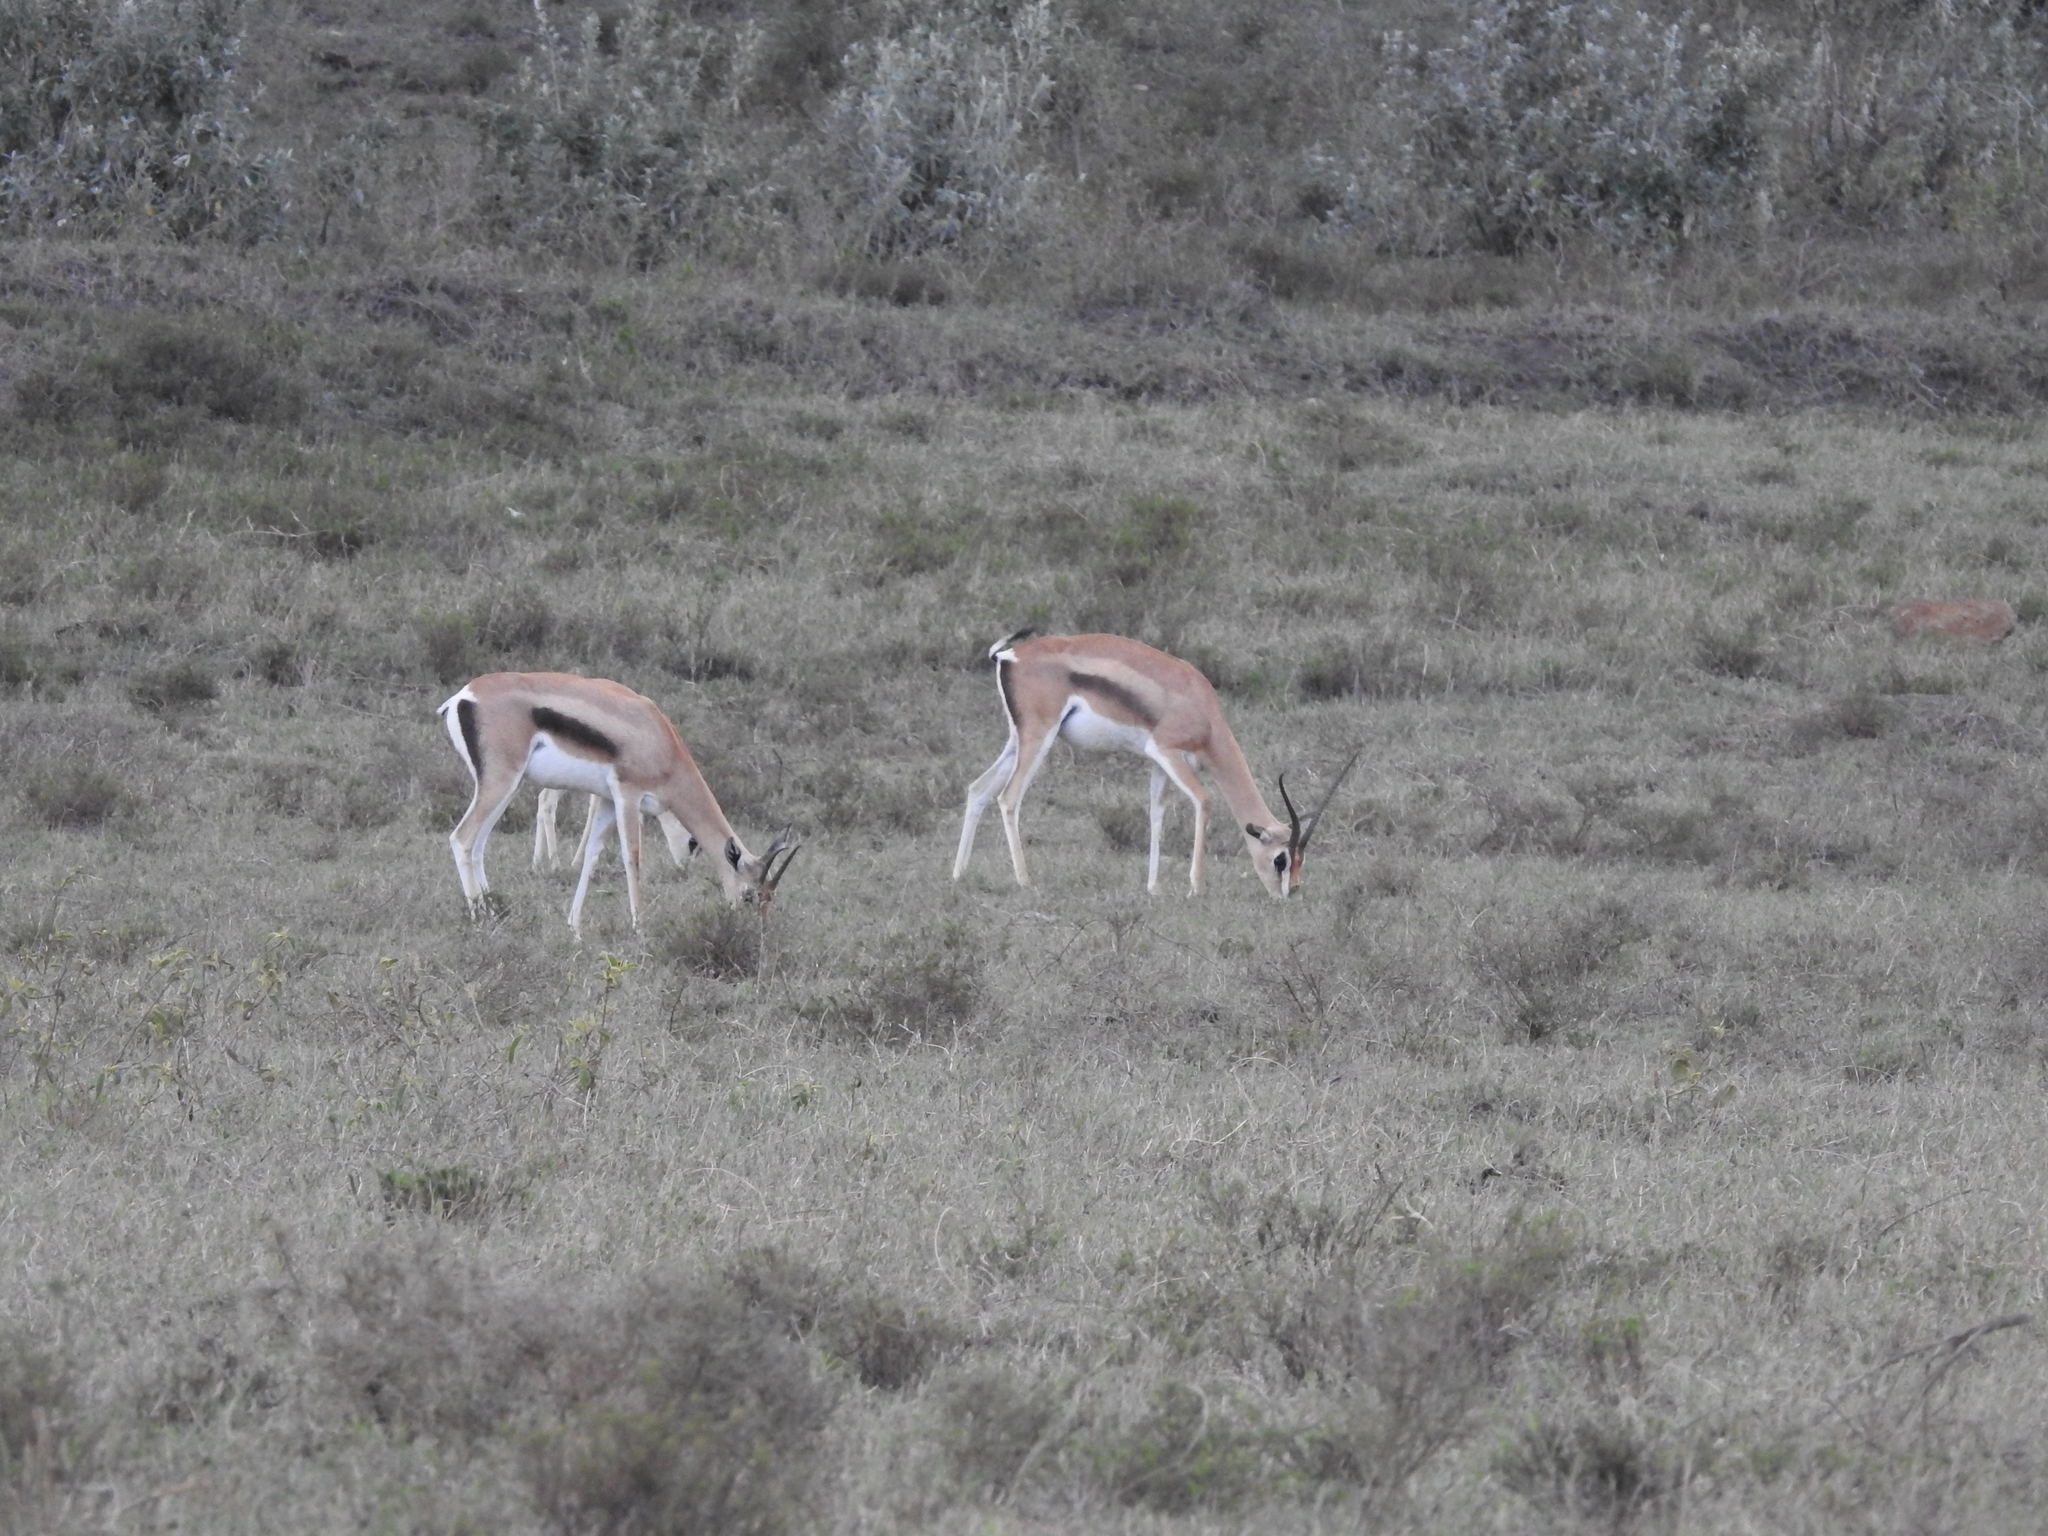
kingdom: Animalia
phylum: Chordata
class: Mammalia
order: Artiodactyla
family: Bovidae
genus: Nanger
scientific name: Nanger granti
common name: Grant's gazelle
